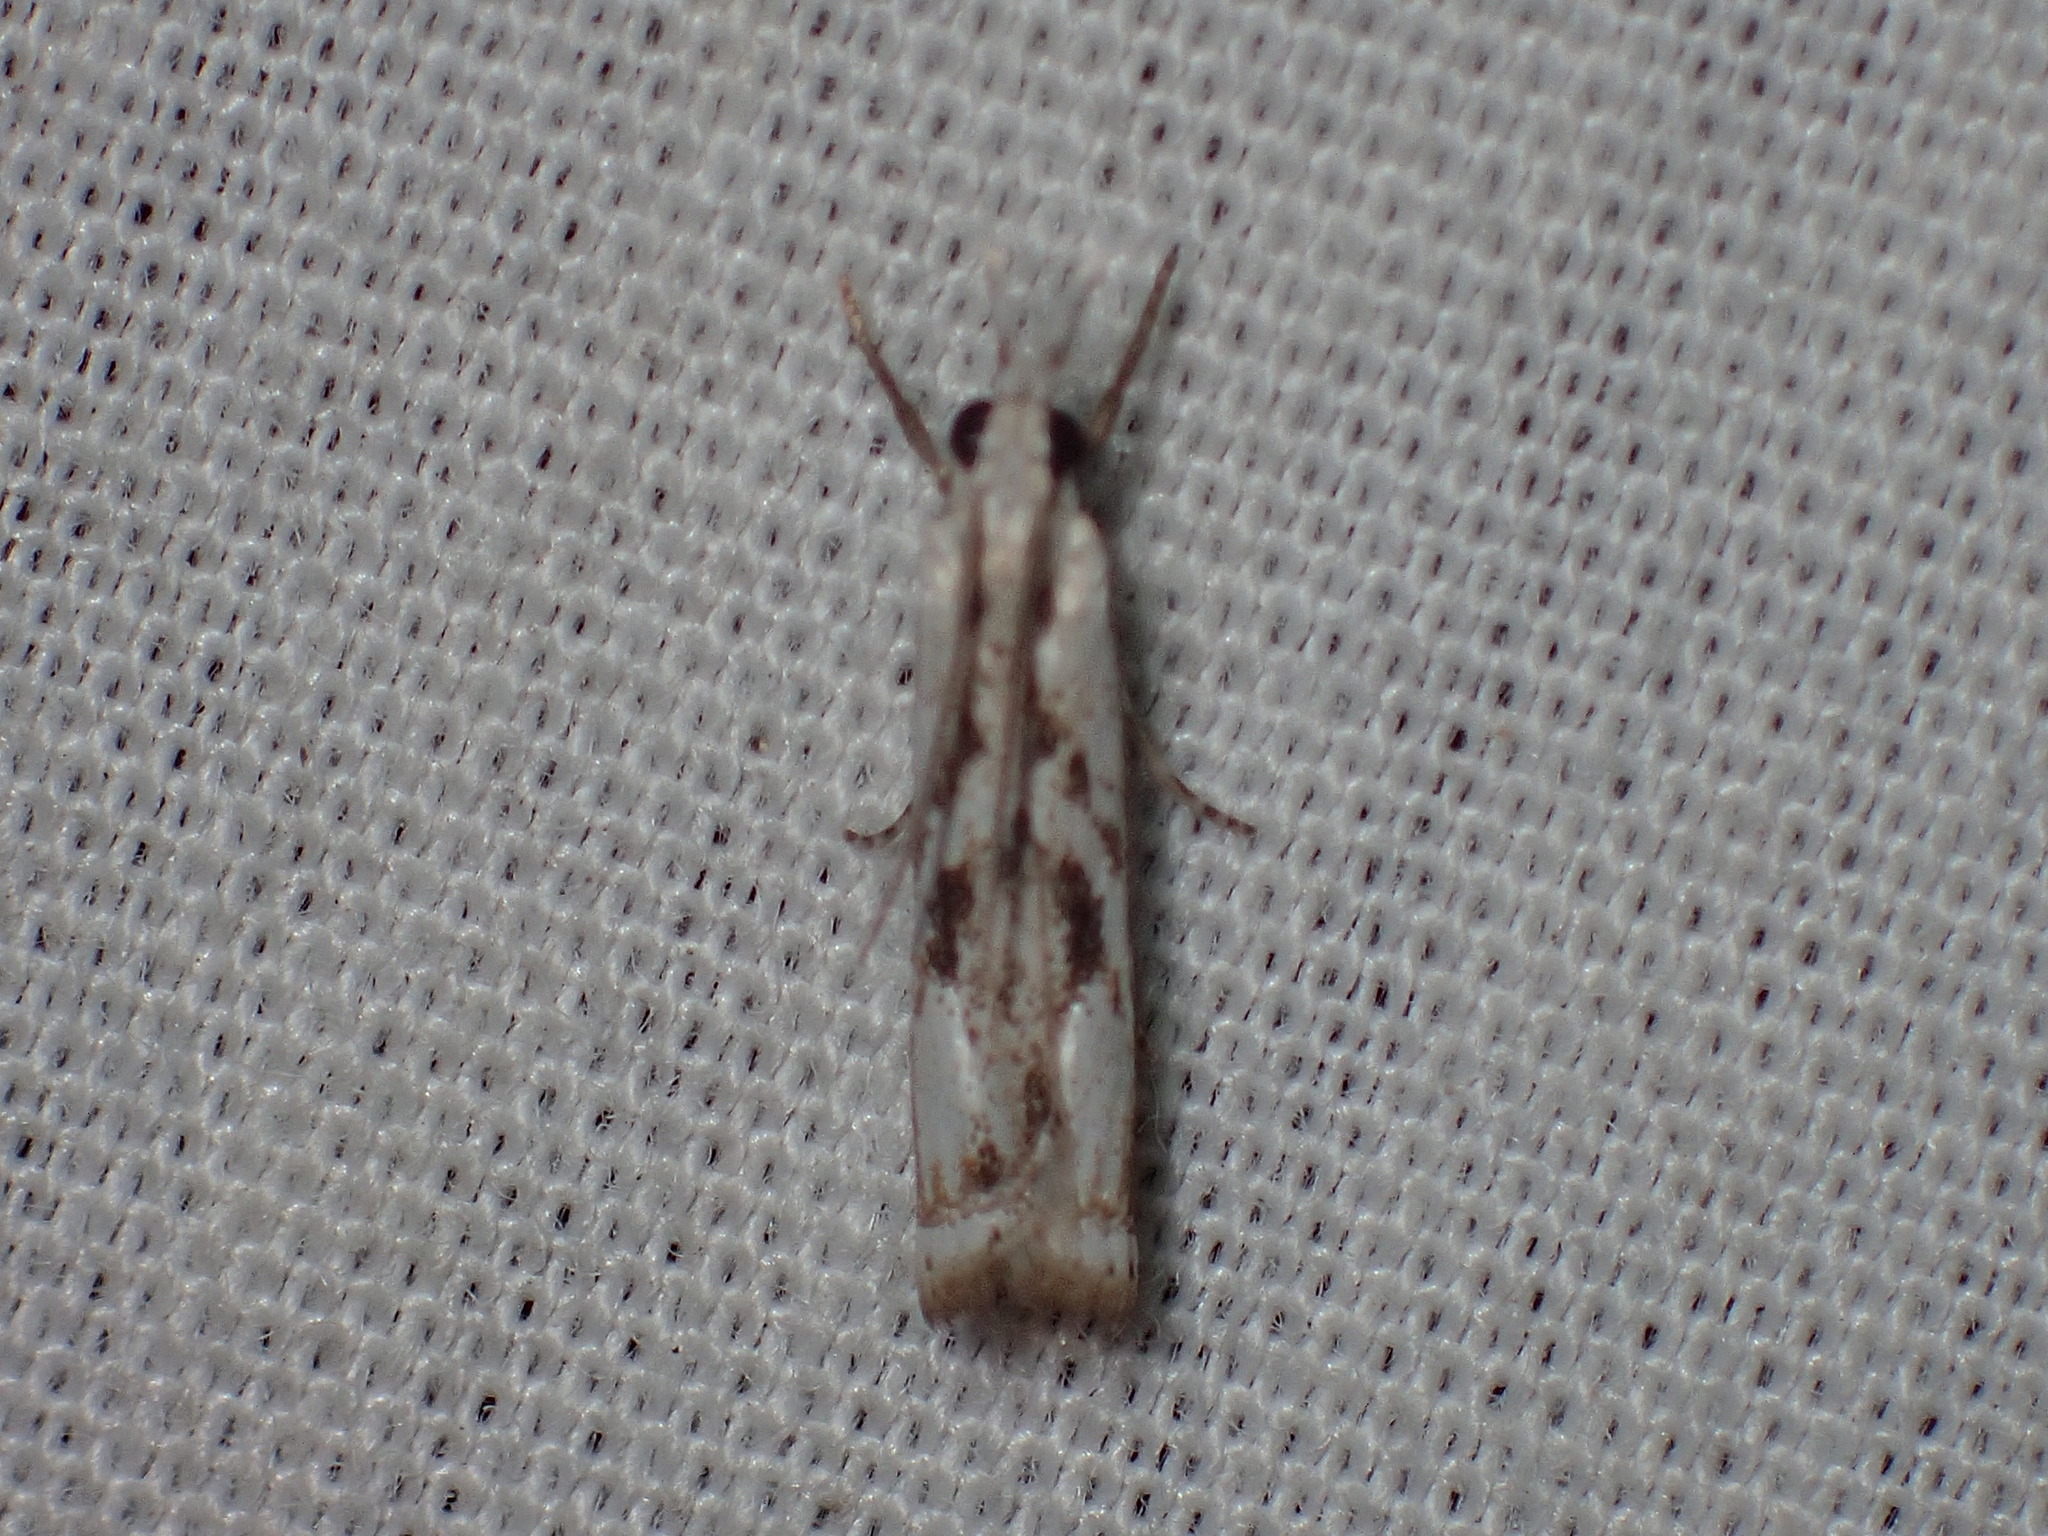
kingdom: Animalia
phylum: Arthropoda
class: Insecta
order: Lepidoptera
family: Crambidae
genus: Microcrambus
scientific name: Microcrambus elegans
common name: Elegant grass-veneer
